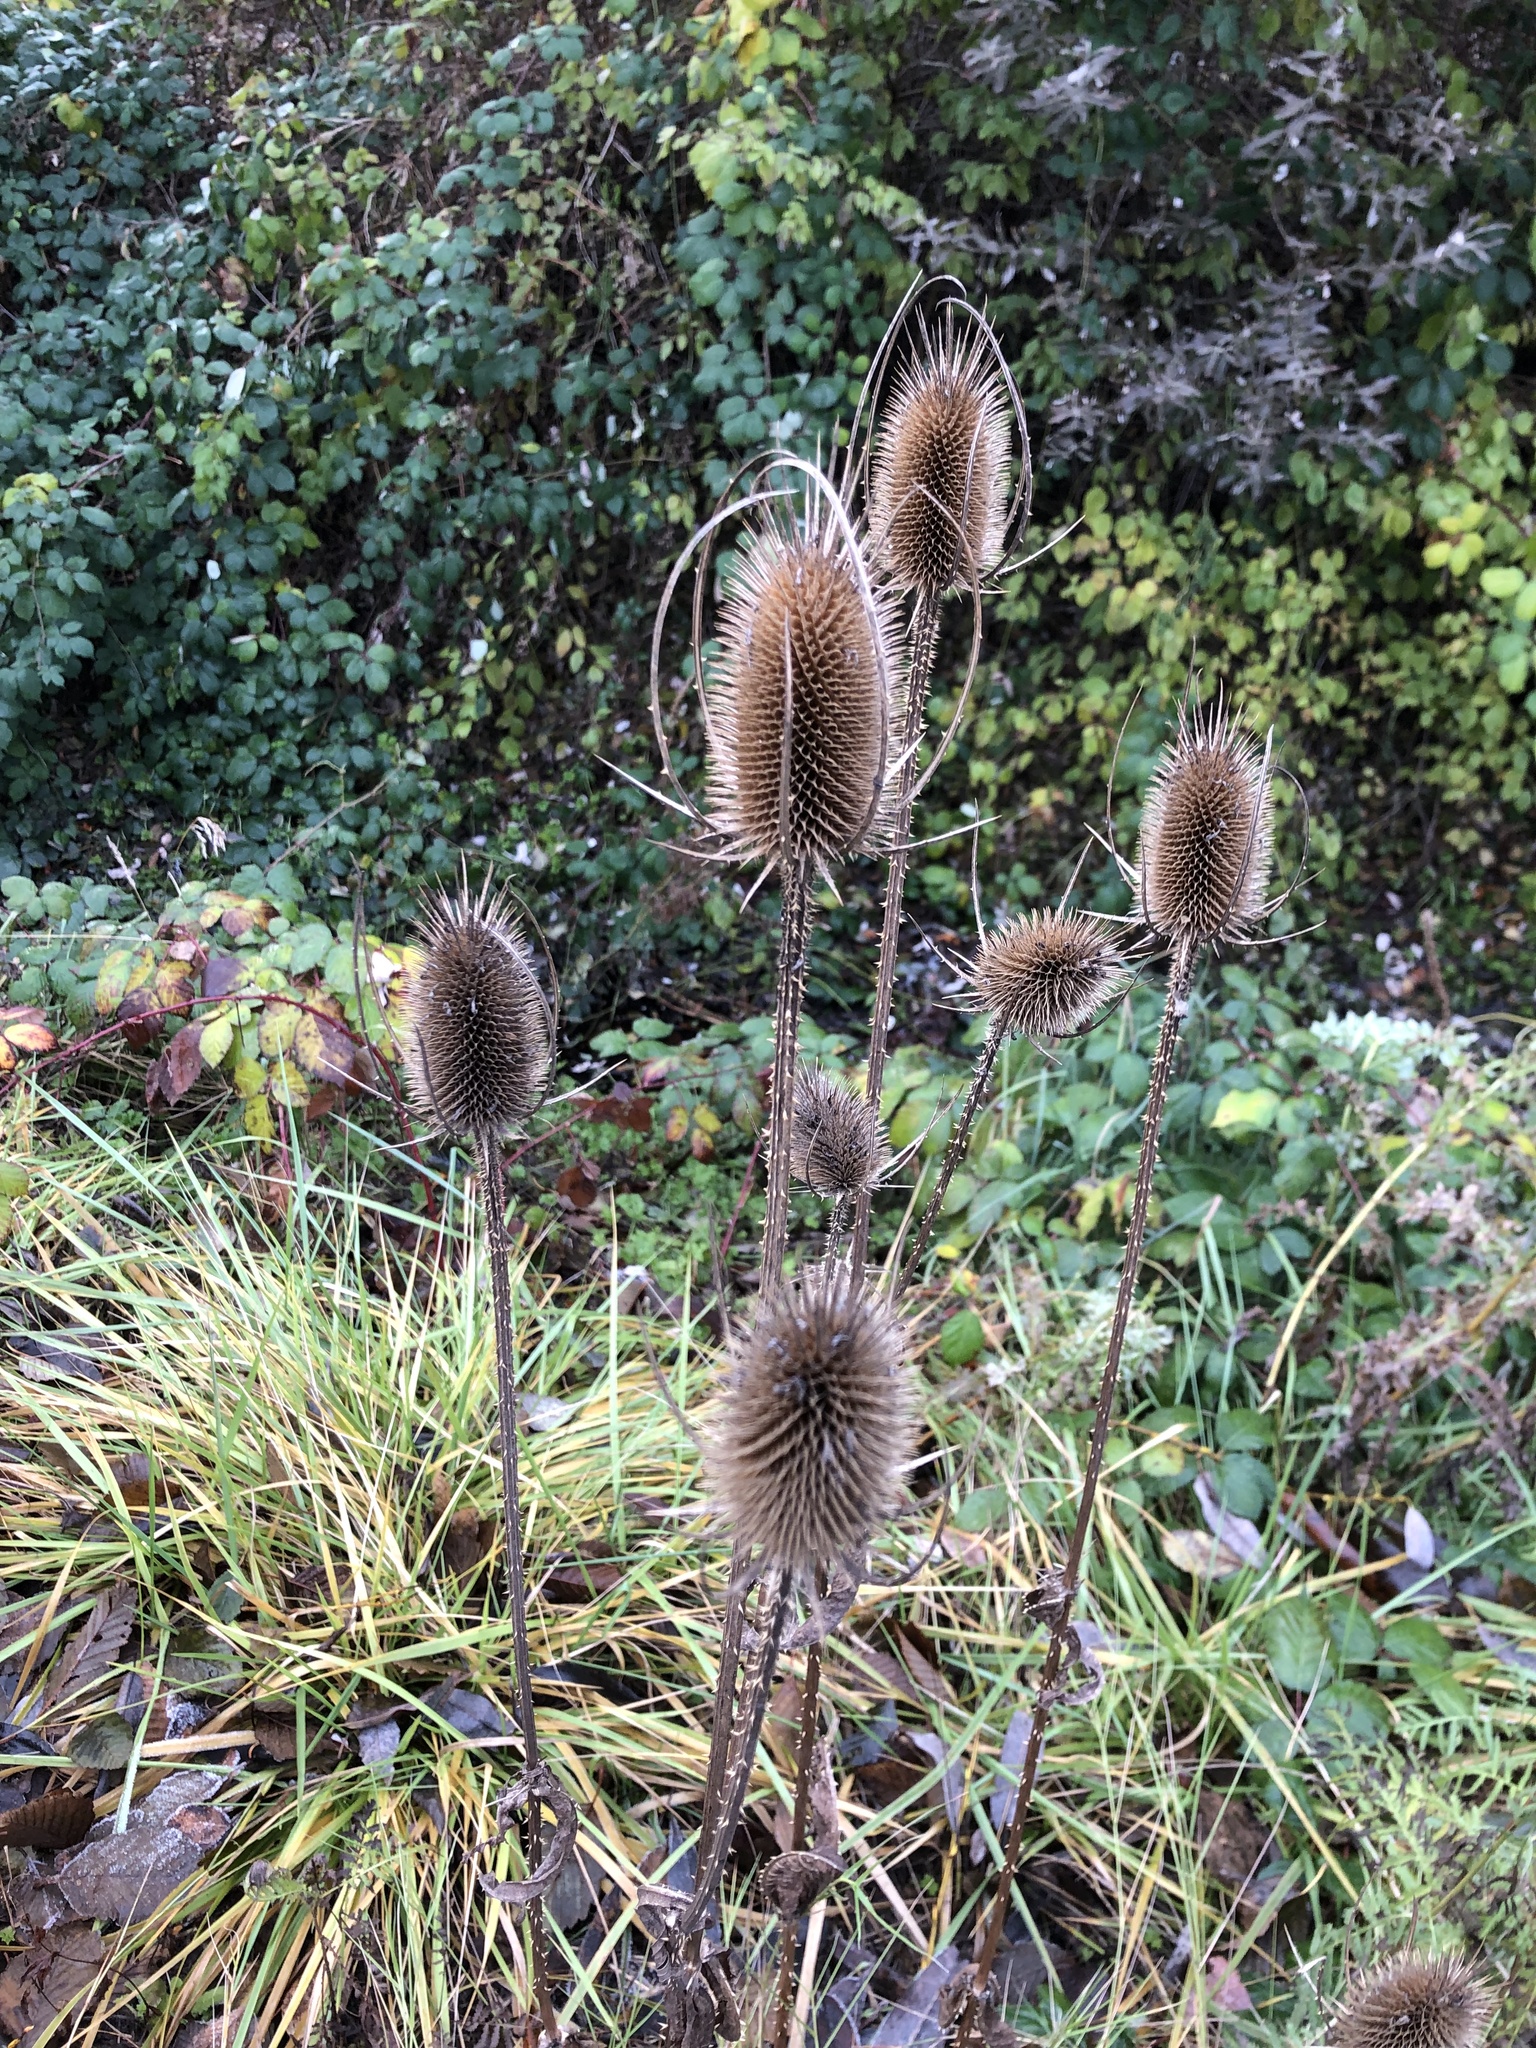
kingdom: Plantae
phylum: Tracheophyta
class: Magnoliopsida
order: Dipsacales
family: Caprifoliaceae
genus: Dipsacus
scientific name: Dipsacus fullonum
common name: Teasel
